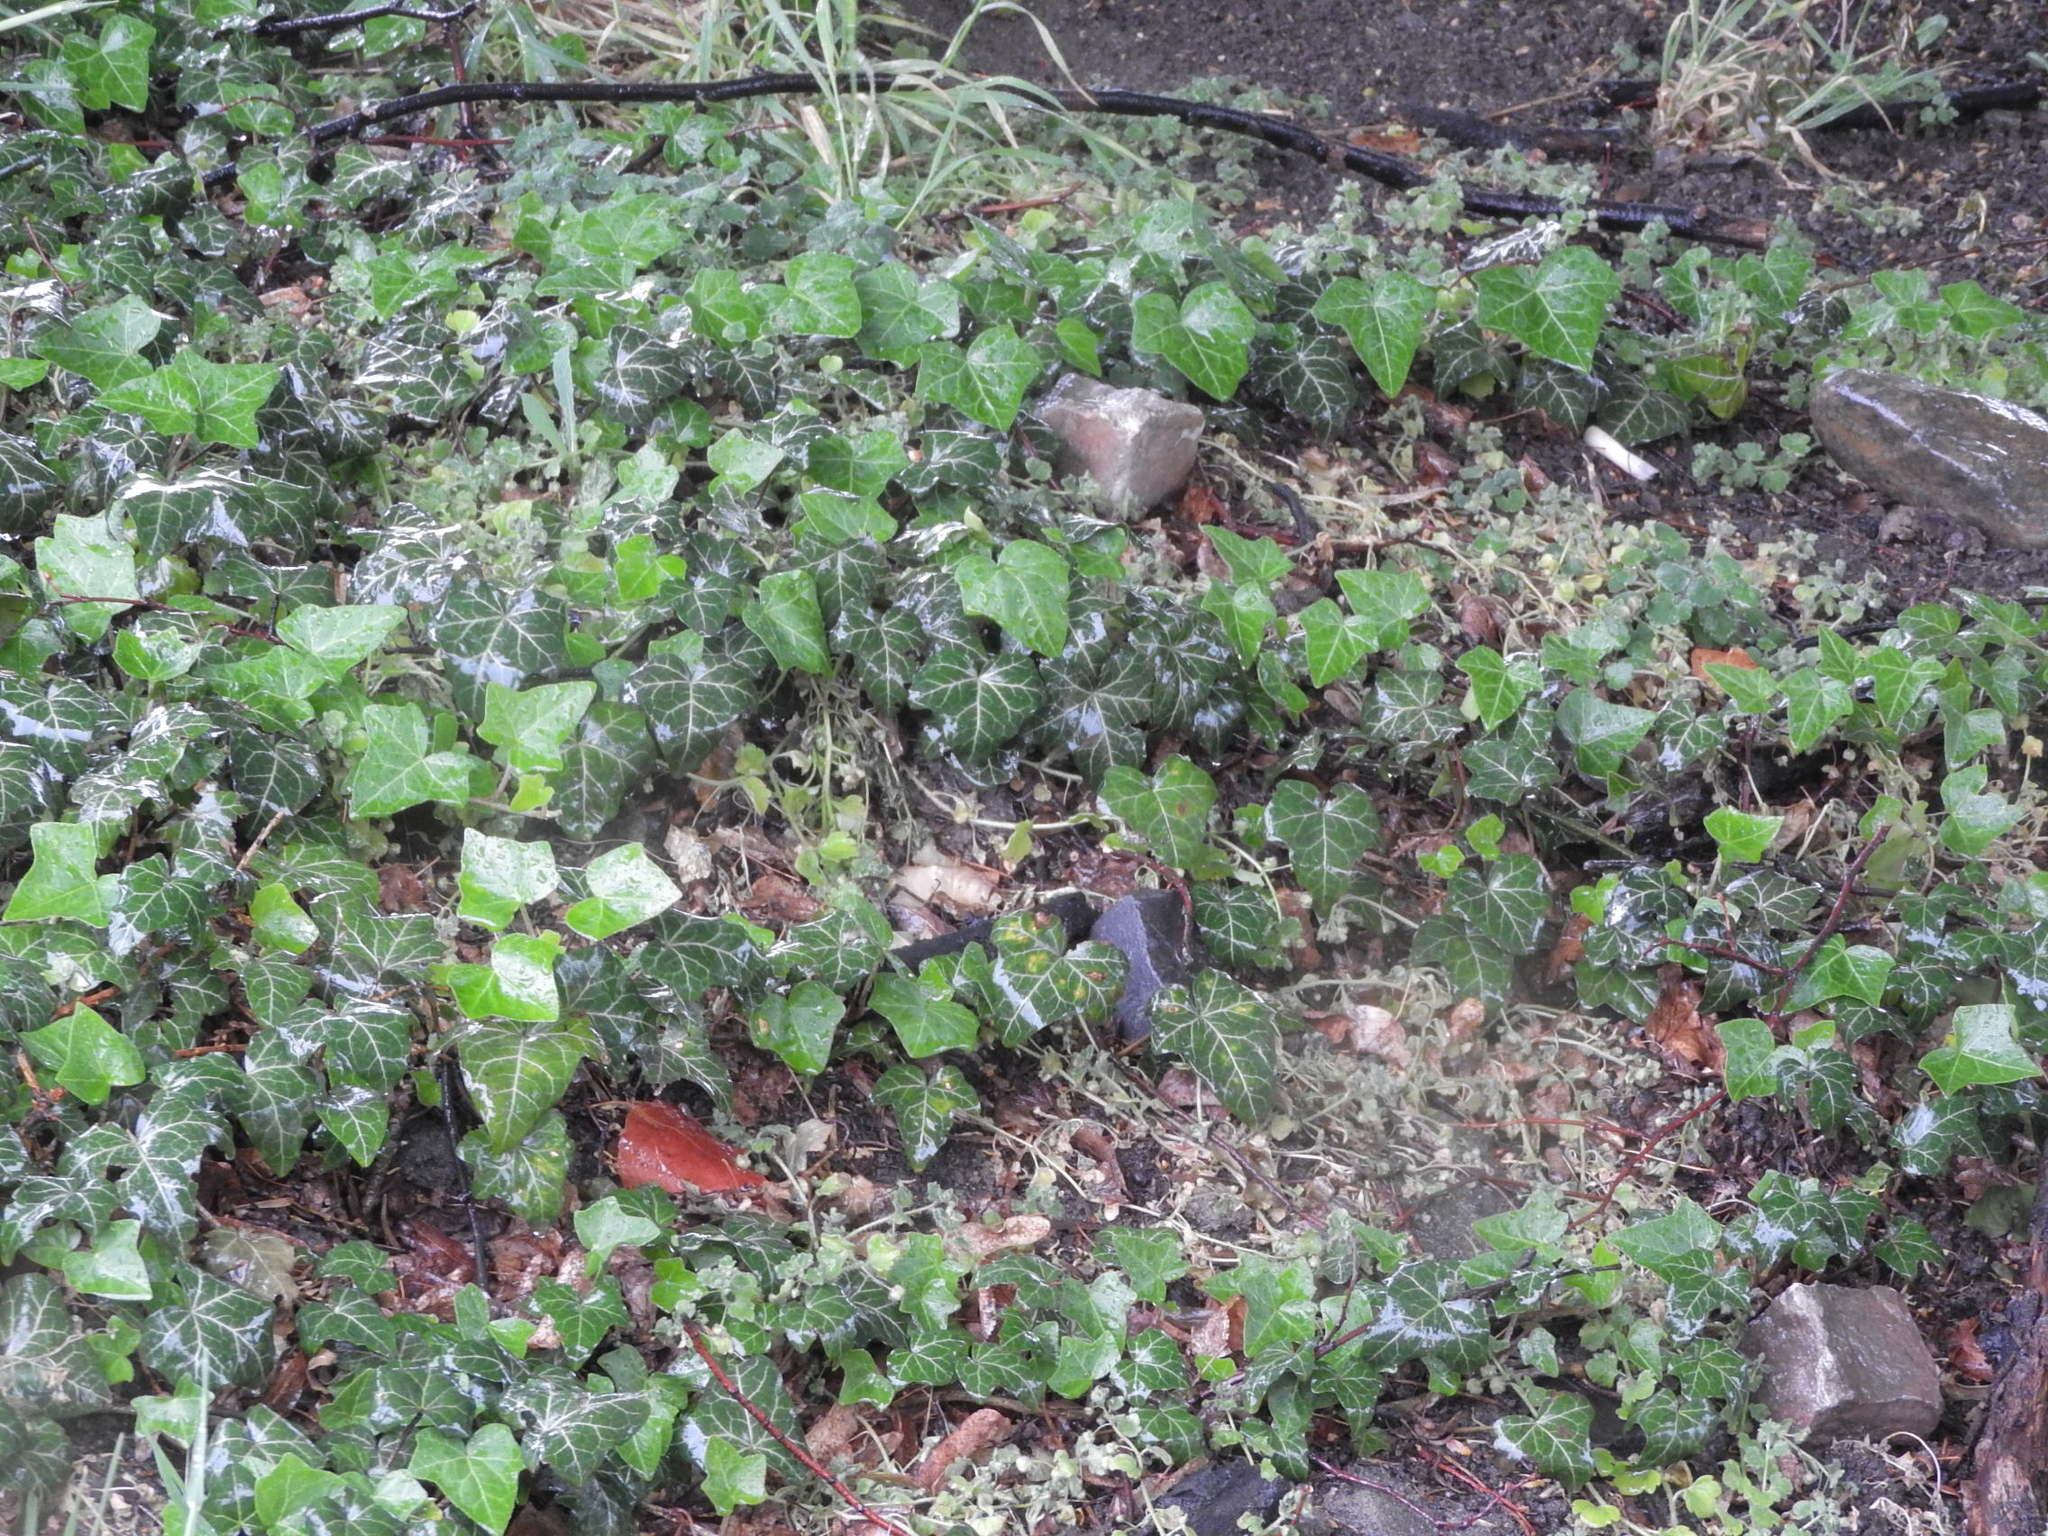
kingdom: Plantae
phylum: Tracheophyta
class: Magnoliopsida
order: Apiales
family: Araliaceae
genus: Hedera
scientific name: Hedera helix
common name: Ivy
